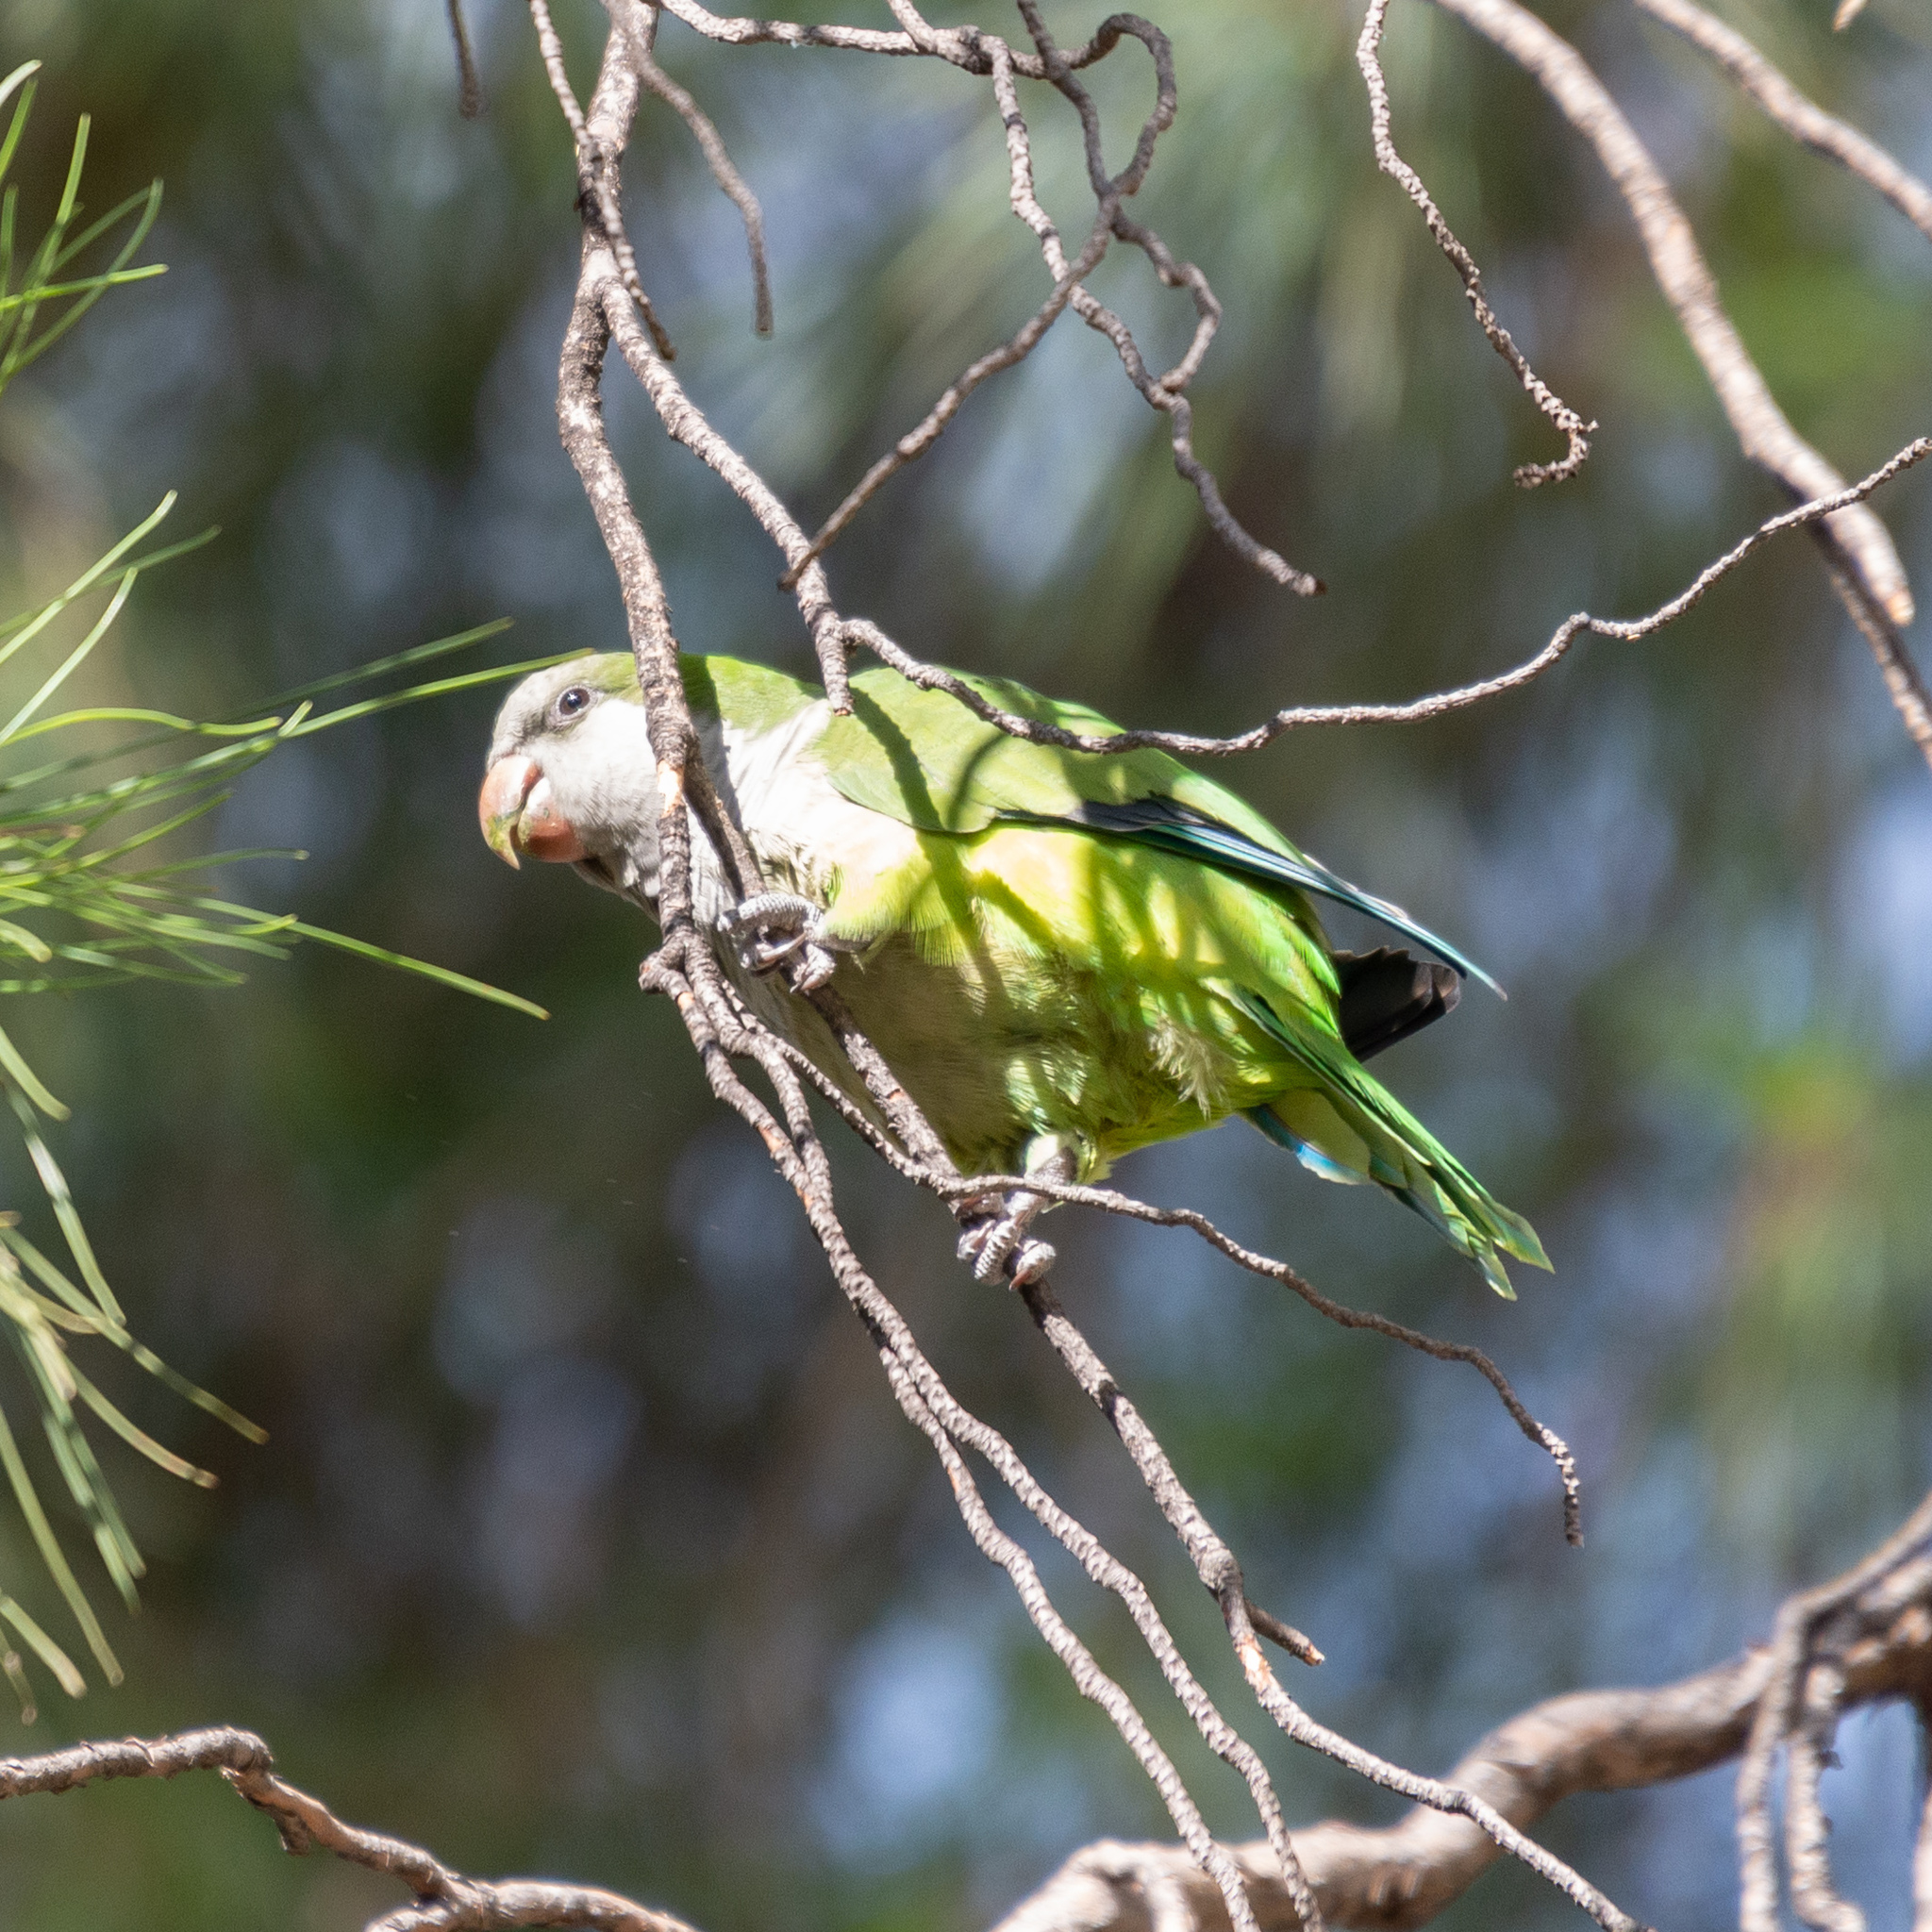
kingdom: Animalia
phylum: Chordata
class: Aves
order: Psittaciformes
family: Psittacidae
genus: Myiopsitta
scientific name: Myiopsitta monachus
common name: Monk parakeet
